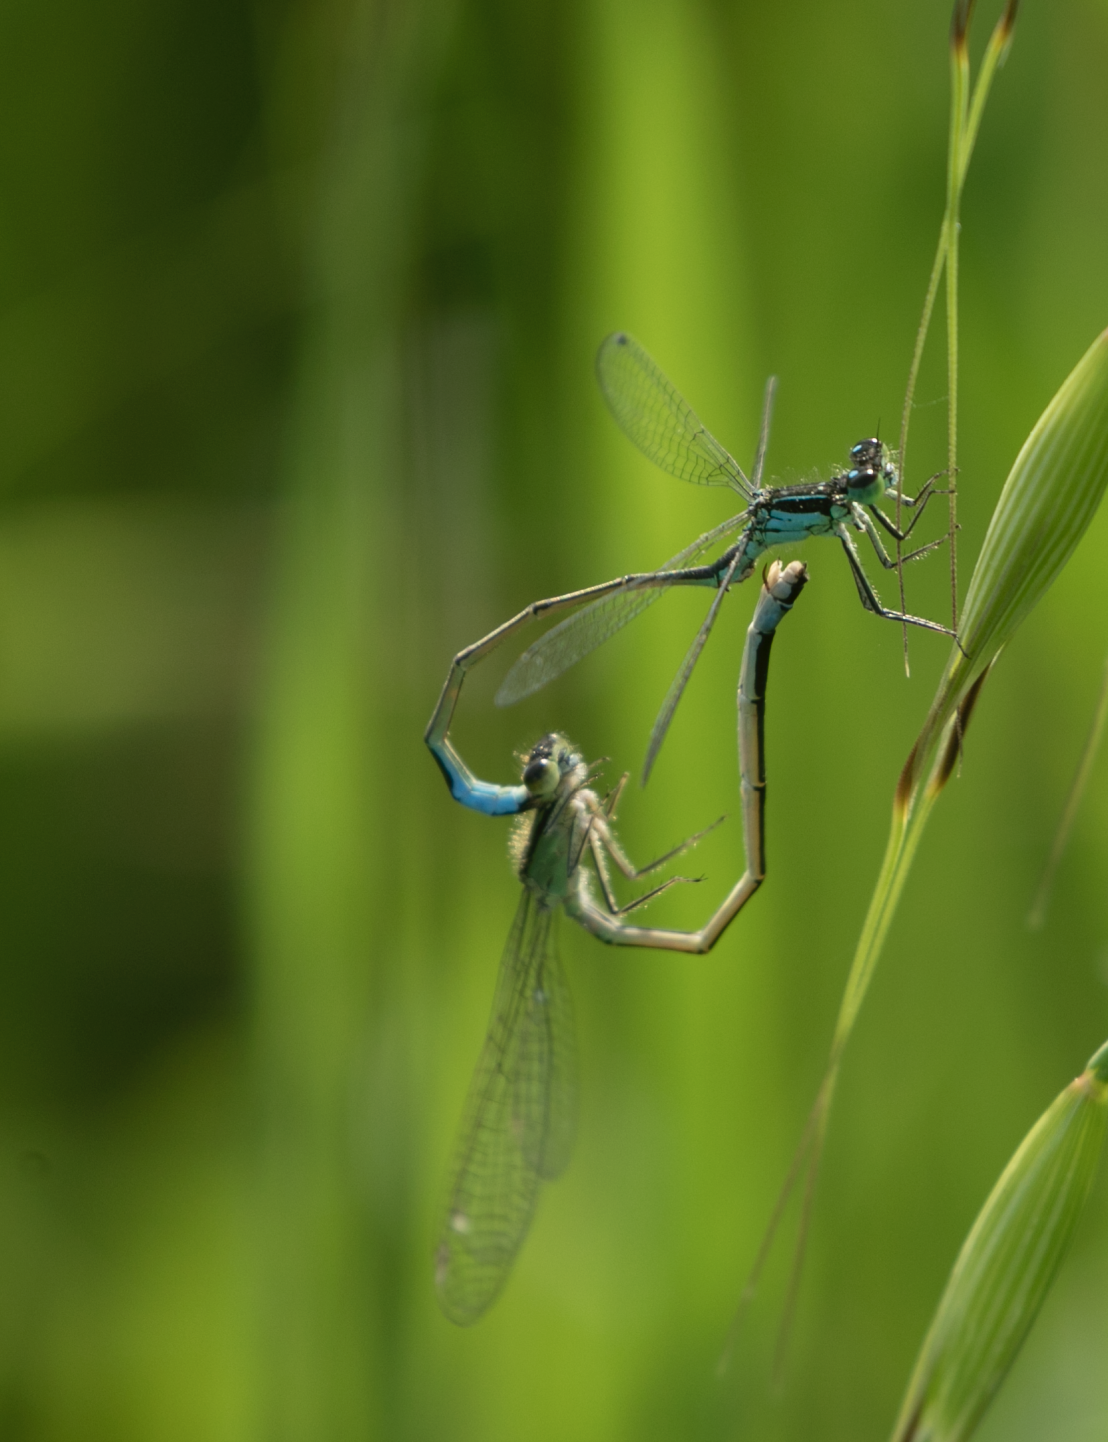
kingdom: Animalia
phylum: Arthropoda
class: Insecta
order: Odonata
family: Coenagrionidae
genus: Ischnura
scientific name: Ischnura elegans
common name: Blue-tailed damselfly
